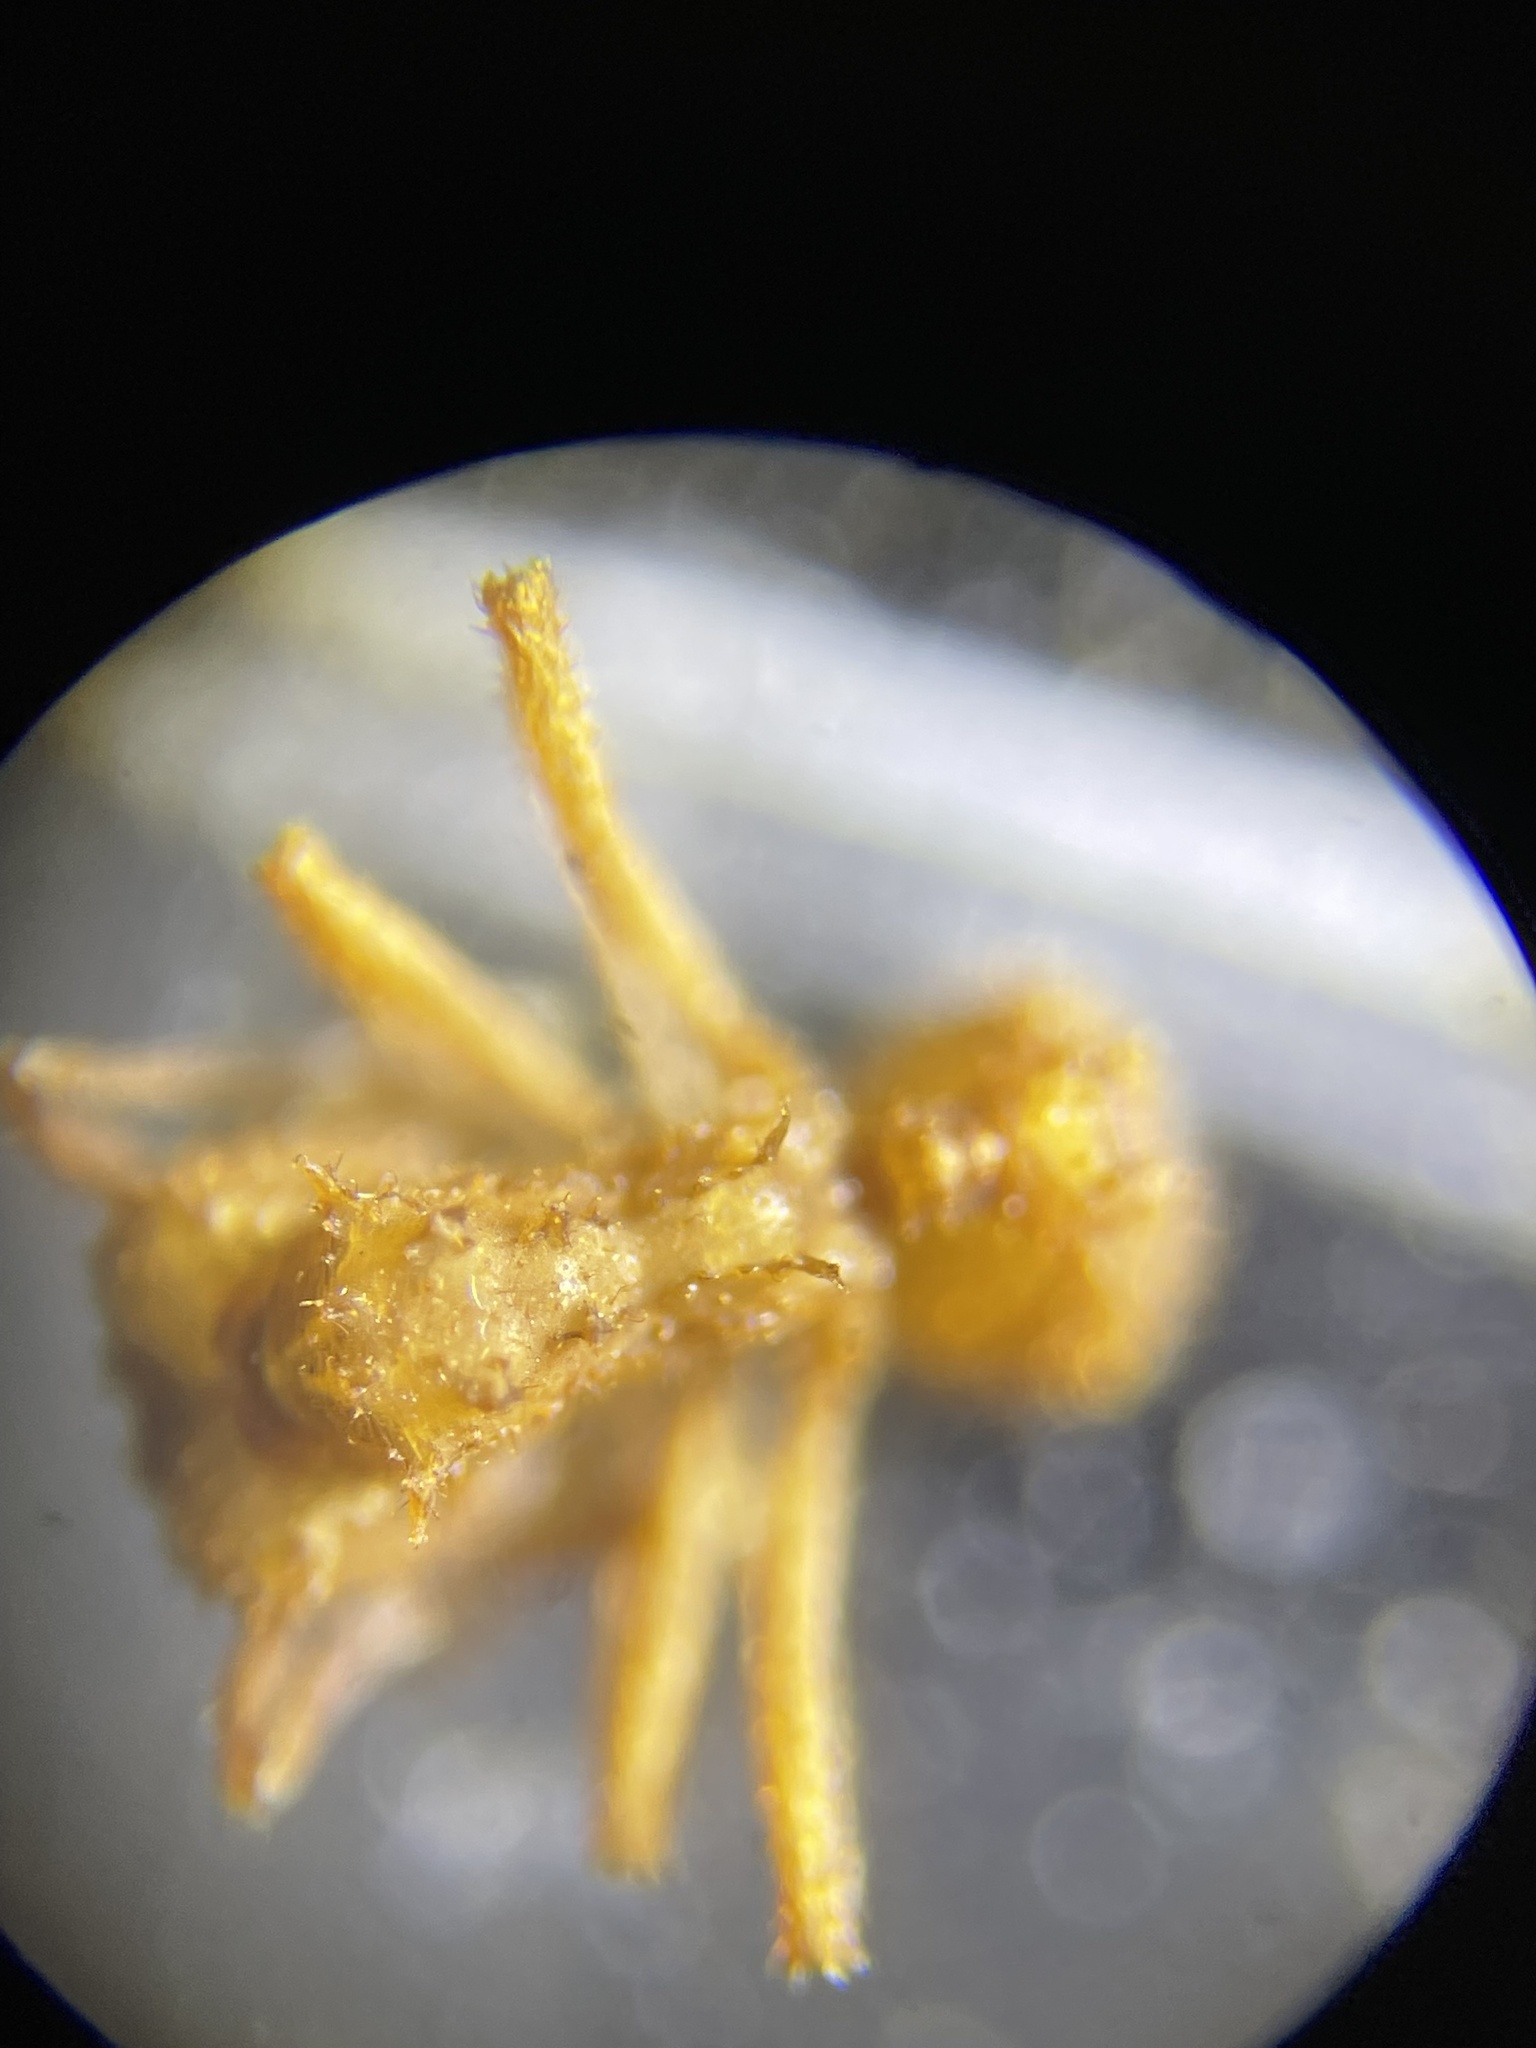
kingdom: Animalia
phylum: Arthropoda
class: Insecta
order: Hymenoptera
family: Formicidae
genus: Trachymyrmex
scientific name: Trachymyrmex septentrionalis
